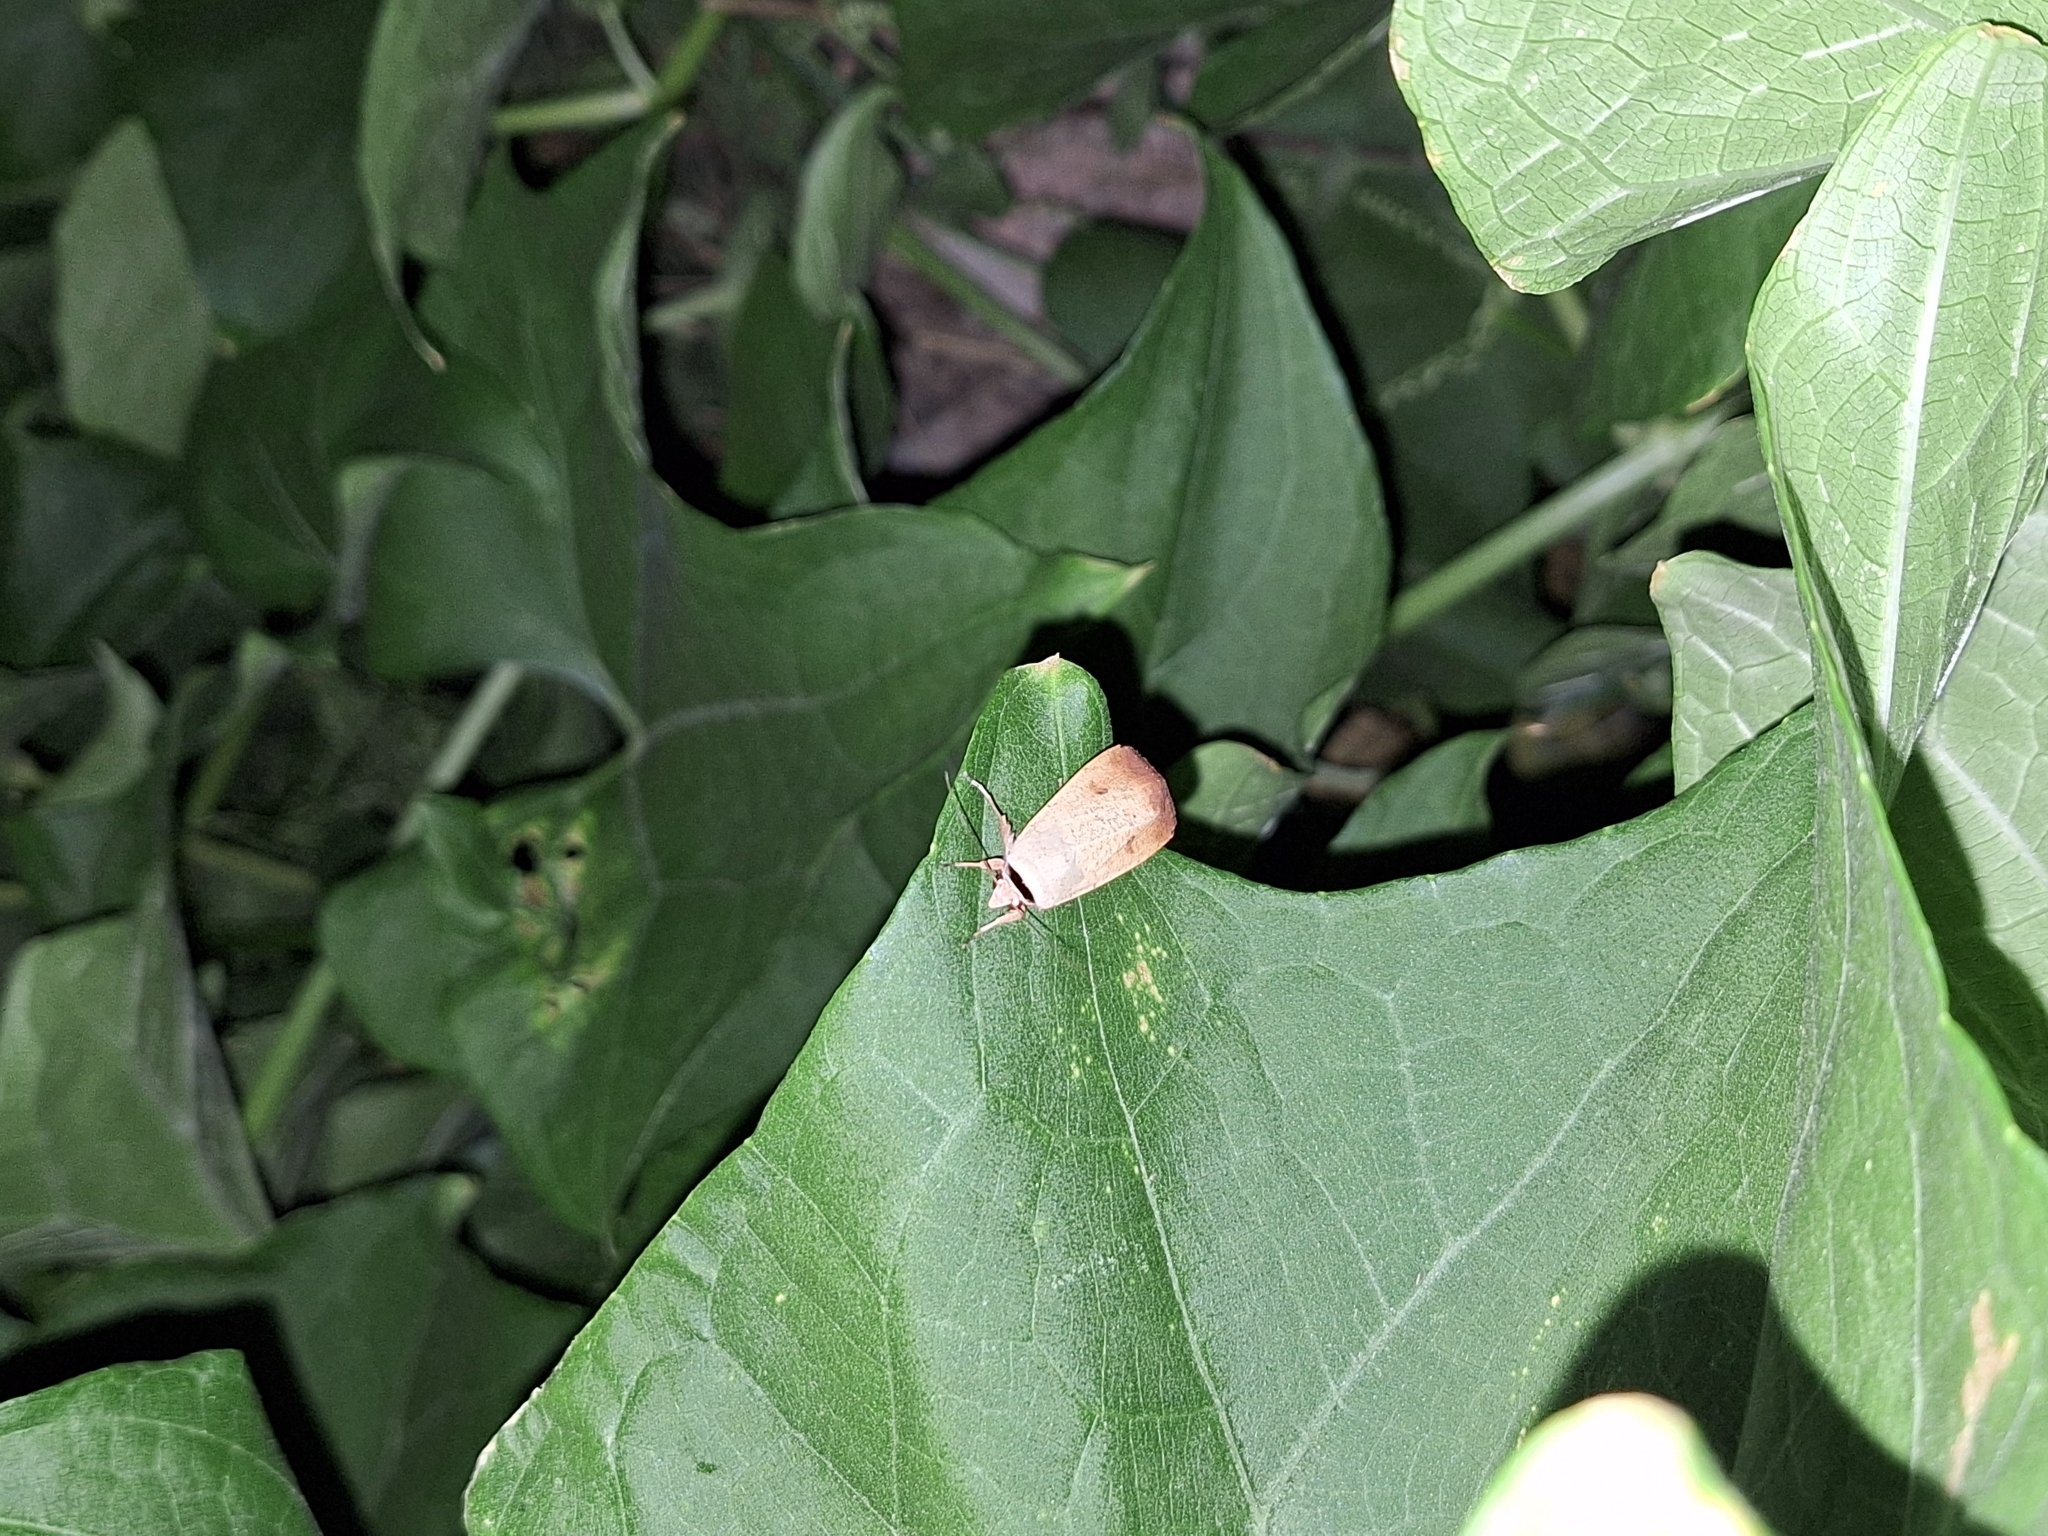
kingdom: Animalia
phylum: Arthropoda
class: Insecta
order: Lepidoptera
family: Noctuidae
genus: Anicla
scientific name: Anicla infecta
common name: Green cutworm
